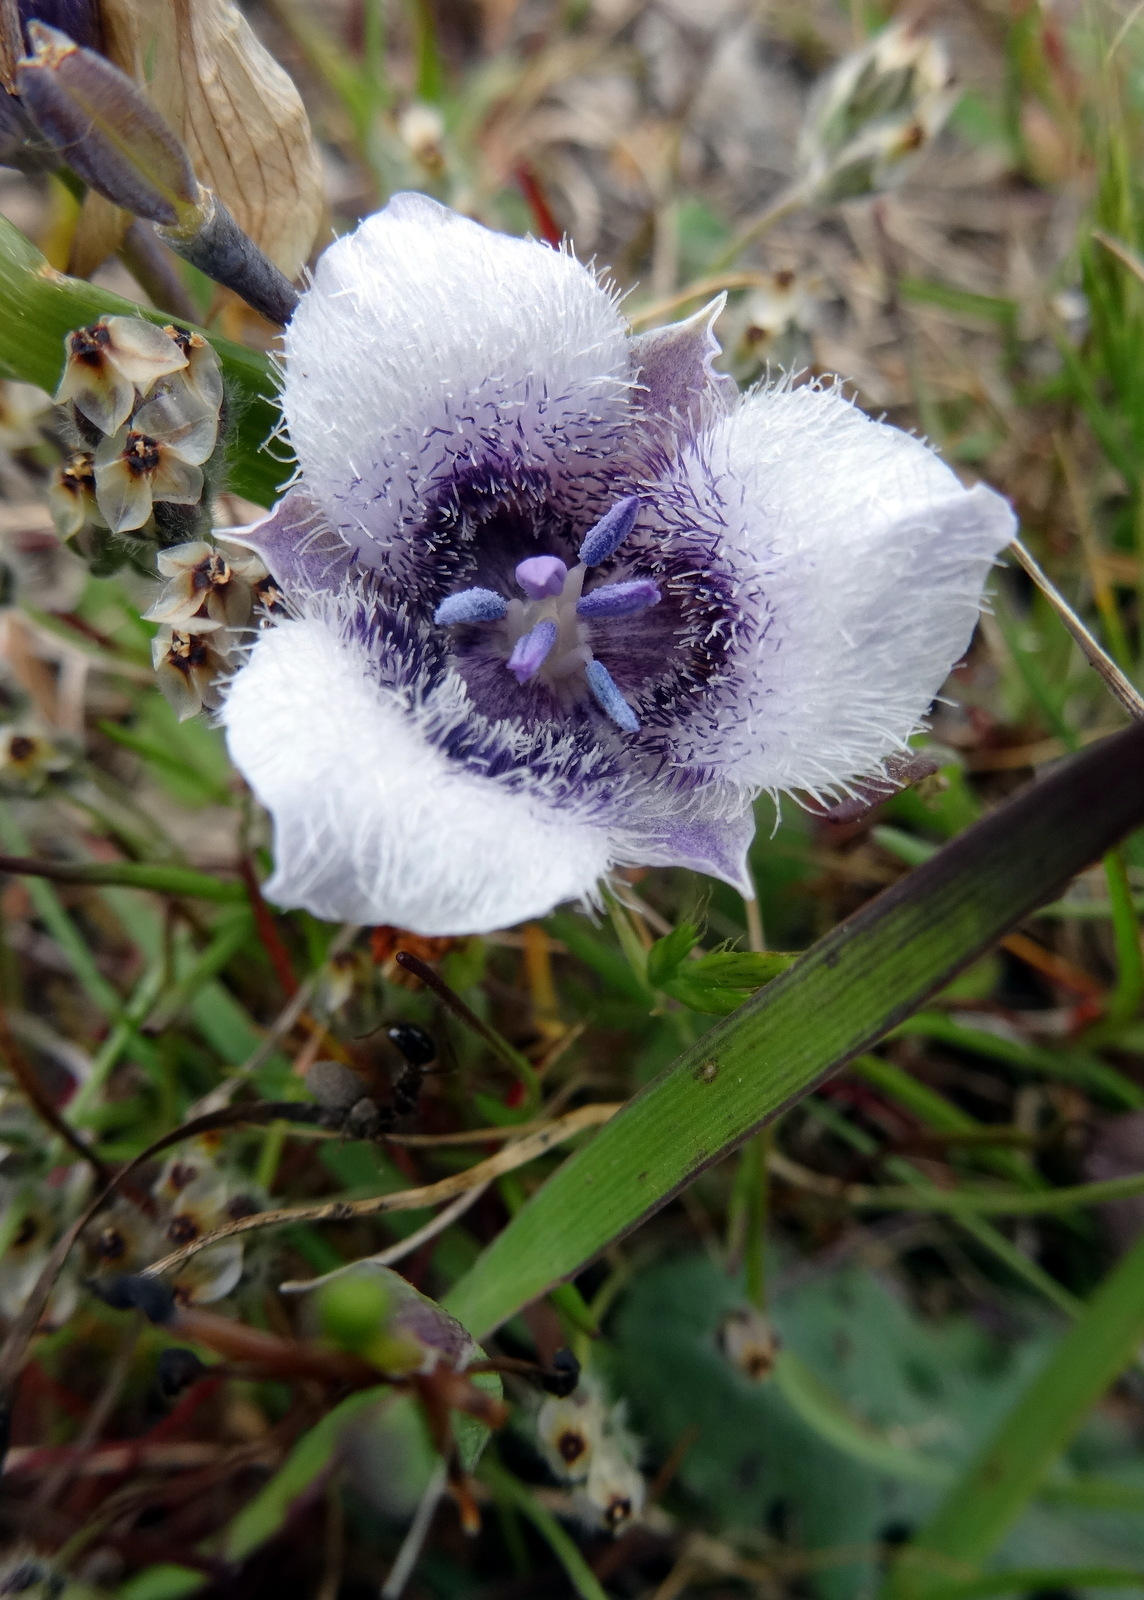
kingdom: Plantae
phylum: Tracheophyta
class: Liliopsida
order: Liliales
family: Liliaceae
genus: Calochortus
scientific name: Calochortus tolmiei
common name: Pussy-ears
